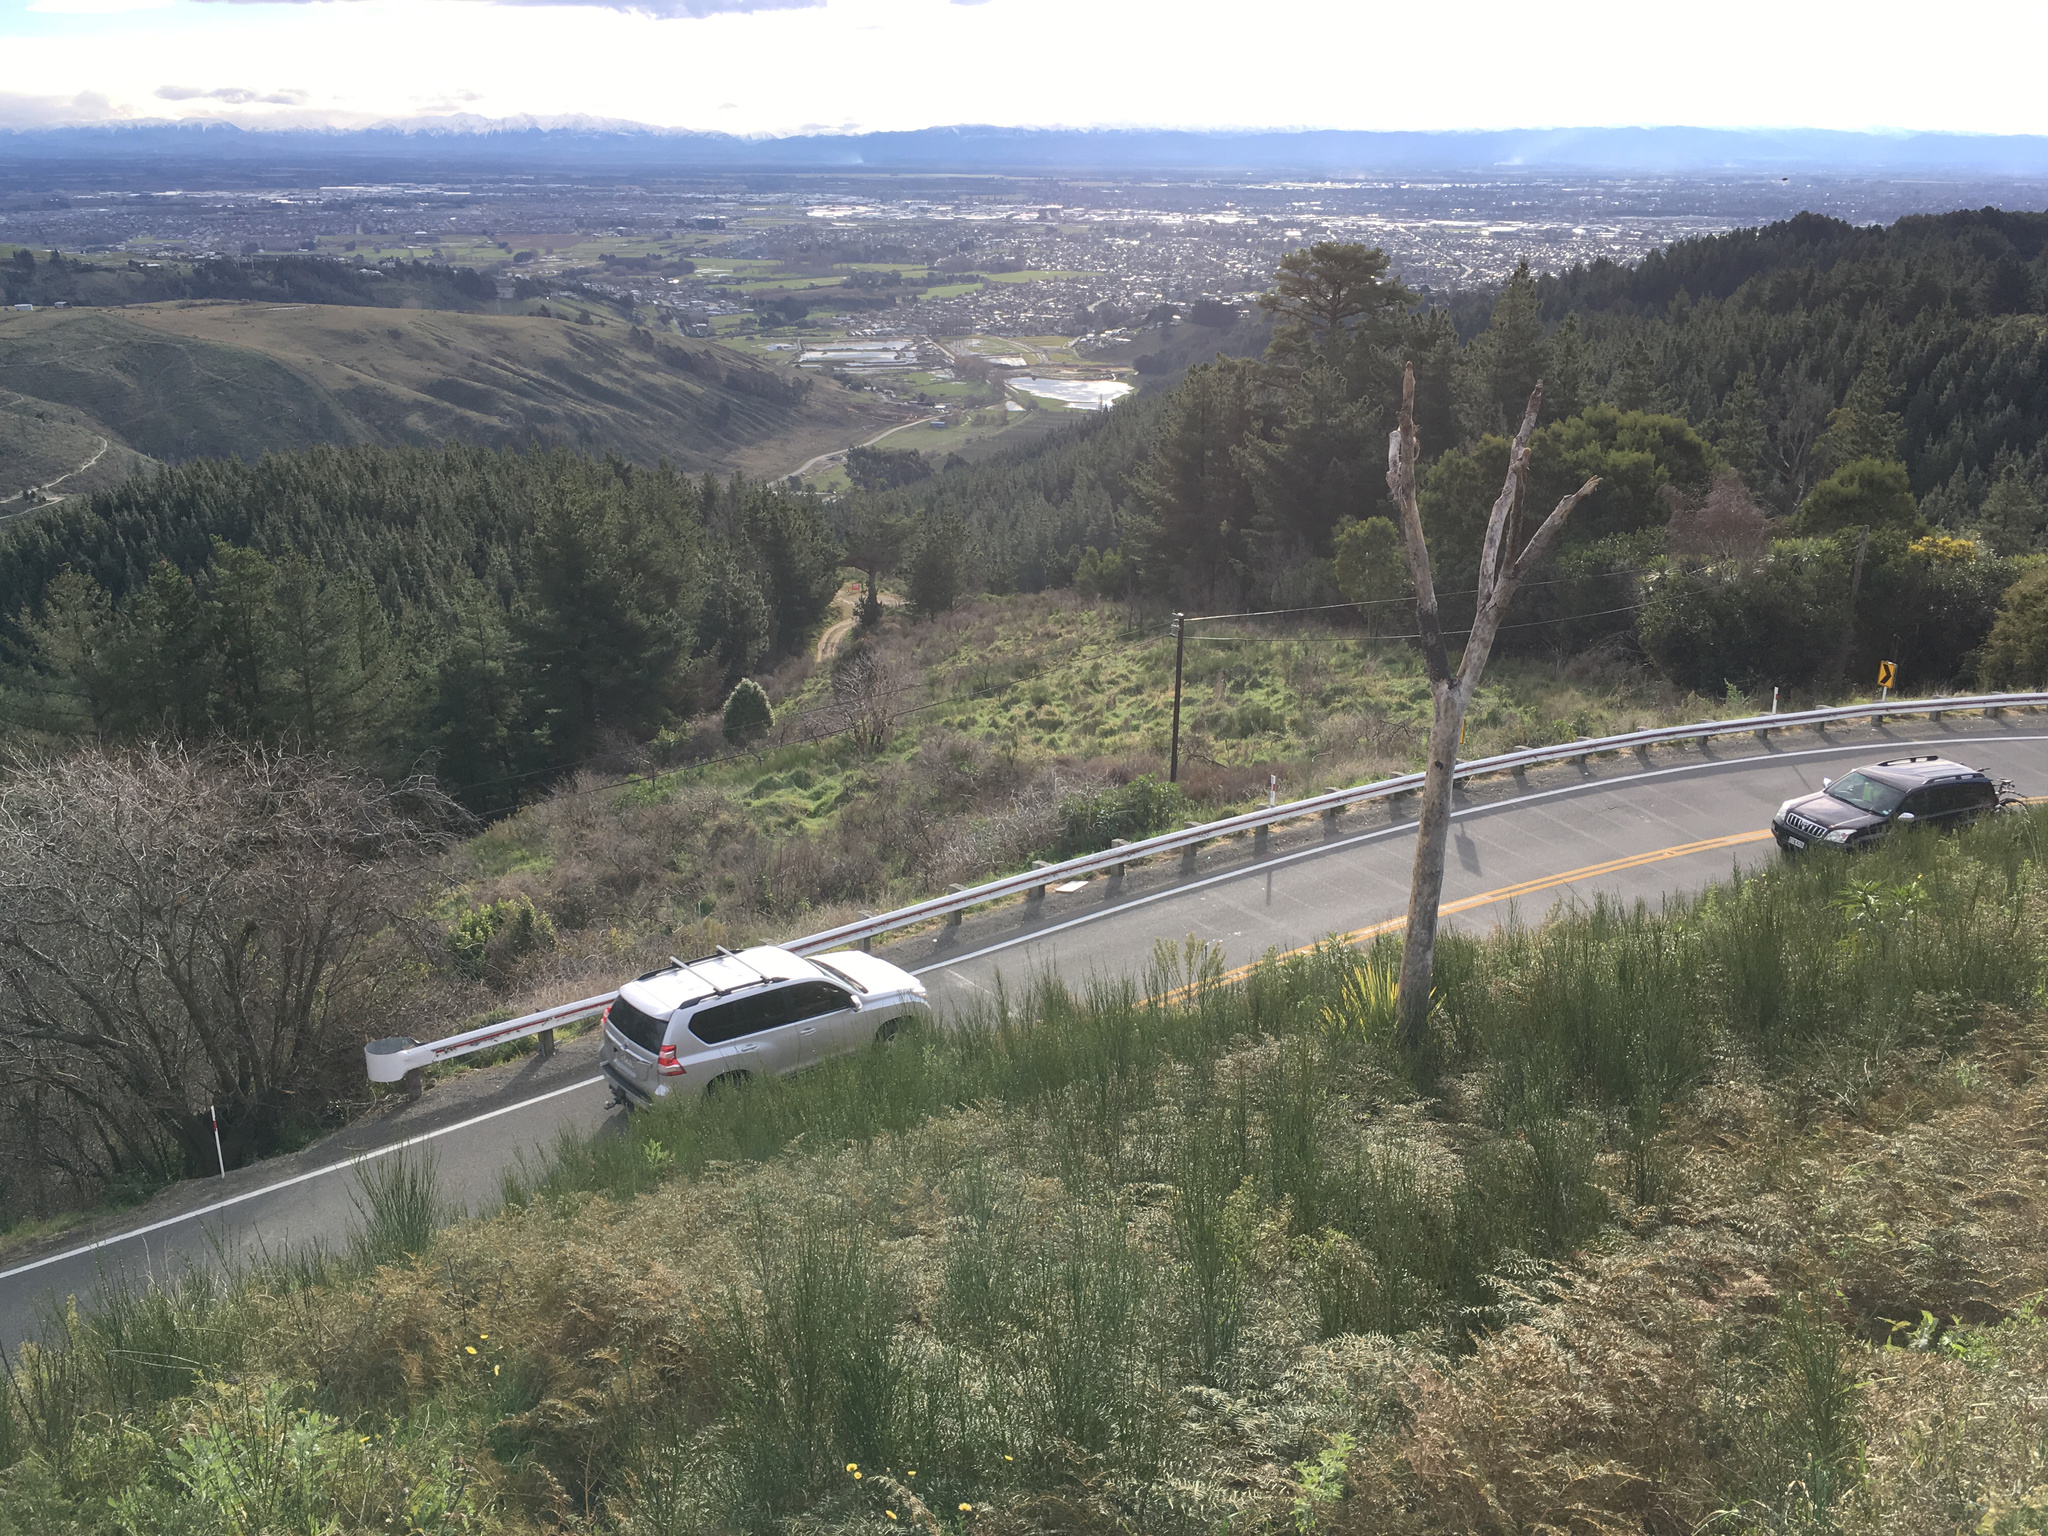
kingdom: Plantae
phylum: Tracheophyta
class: Liliopsida
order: Asparagales
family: Asparagaceae
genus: Cordyline
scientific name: Cordyline australis
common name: Cabbage-palm
